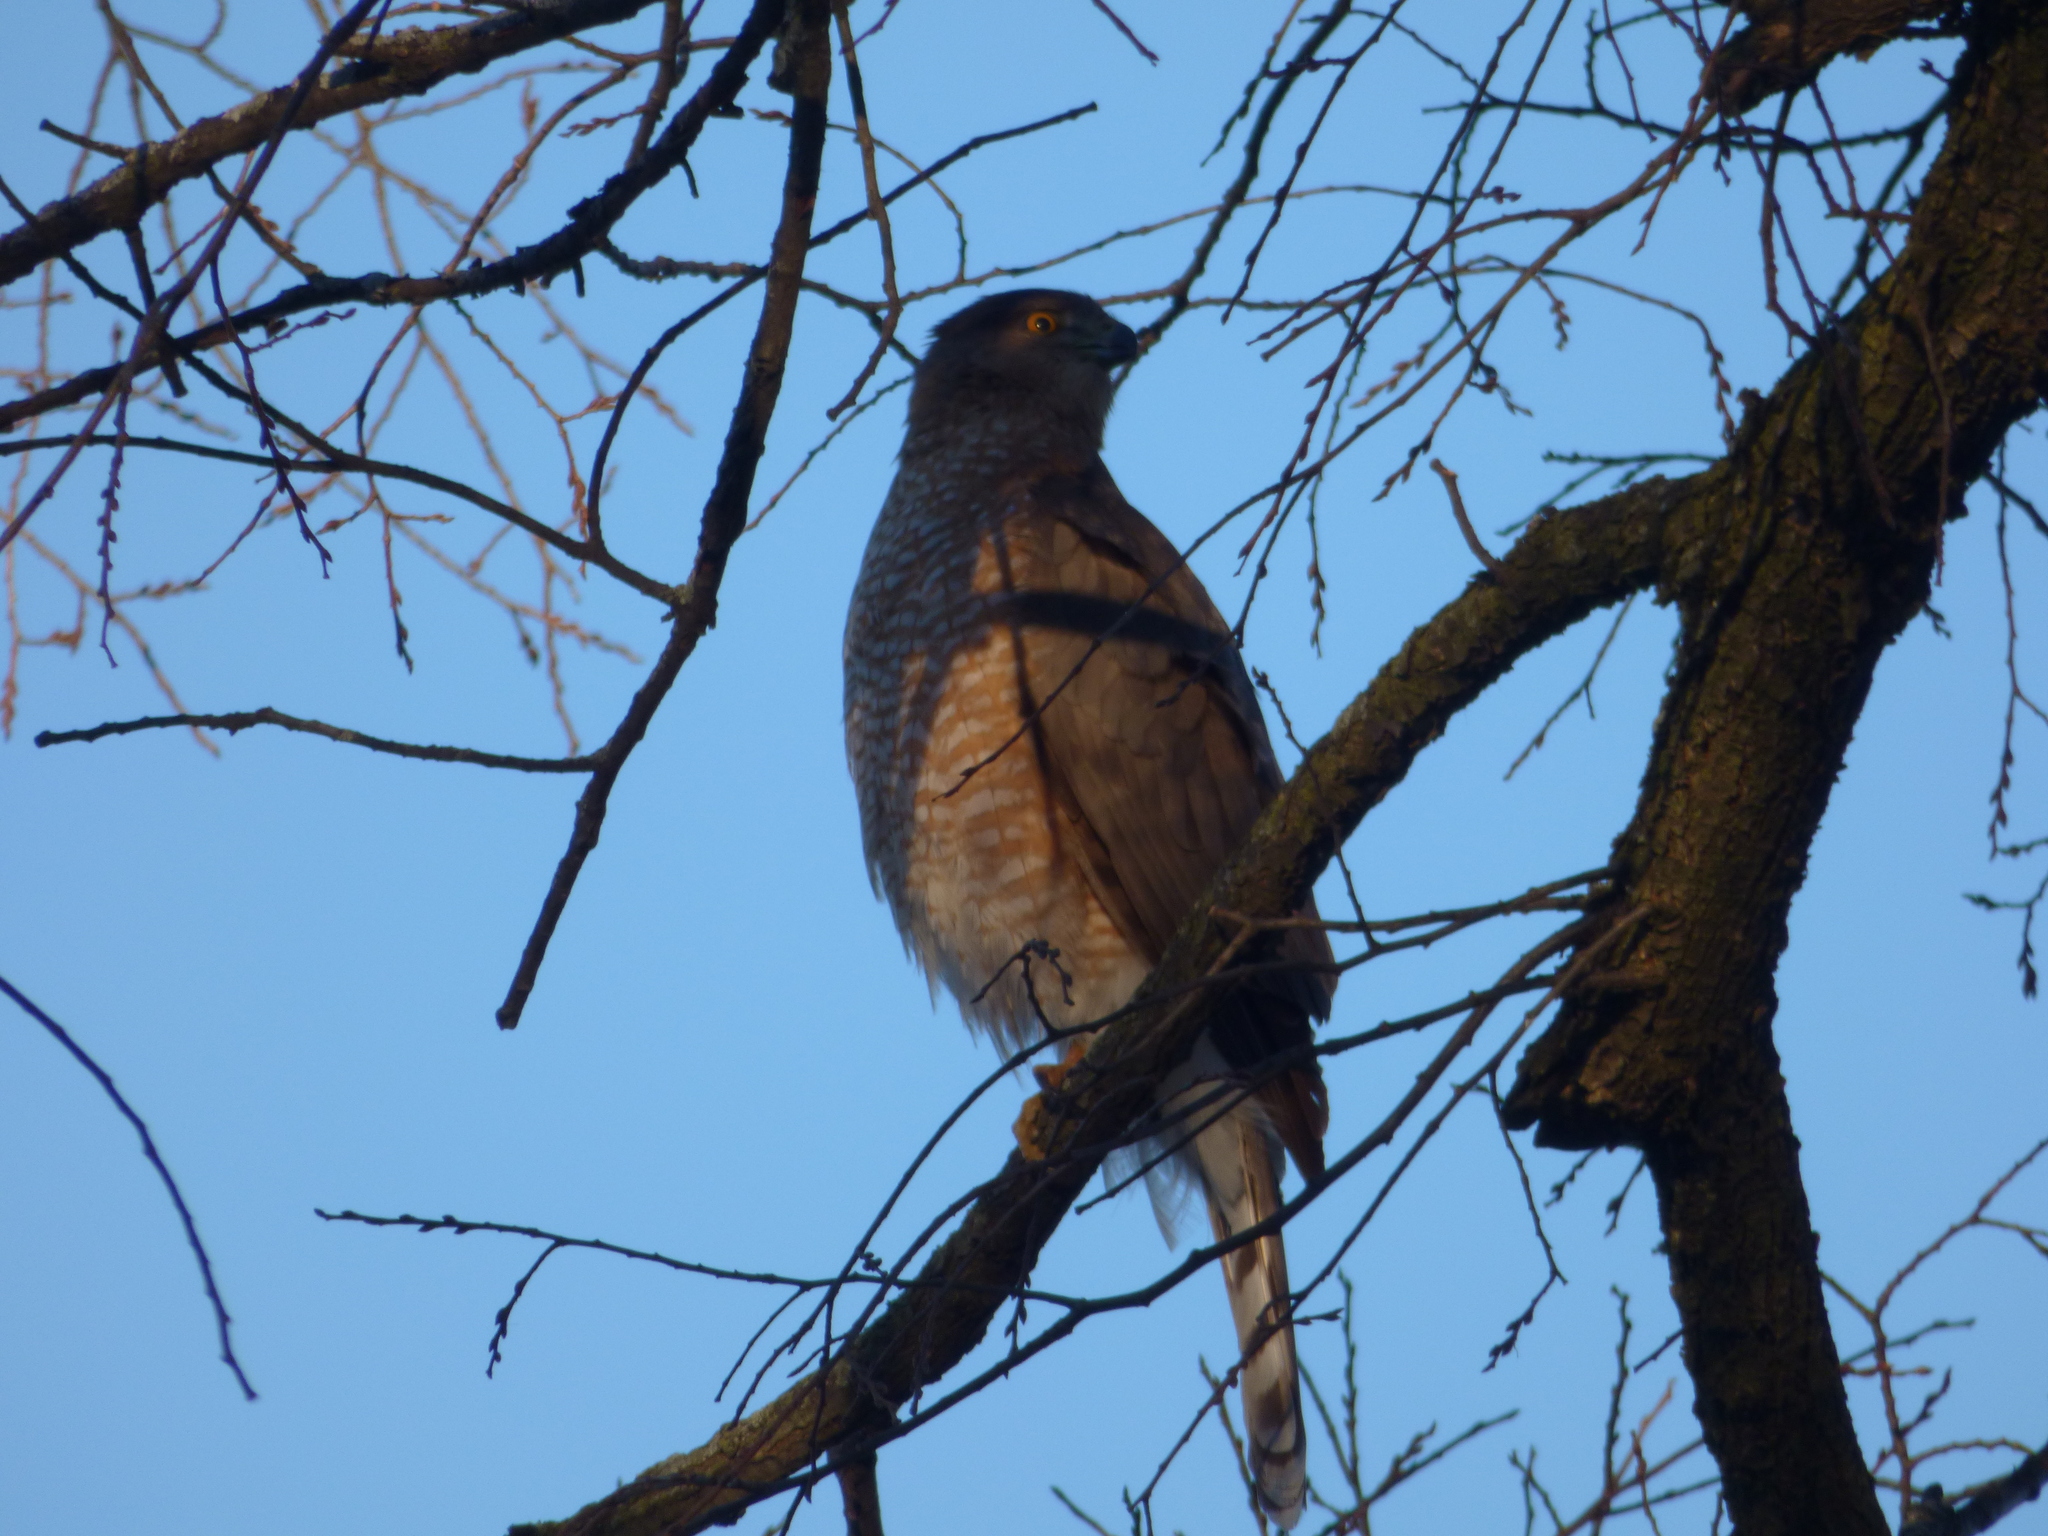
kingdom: Animalia
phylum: Chordata
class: Aves
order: Accipitriformes
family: Accipitridae
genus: Accipiter
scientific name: Accipiter cooperii
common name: Cooper's hawk
